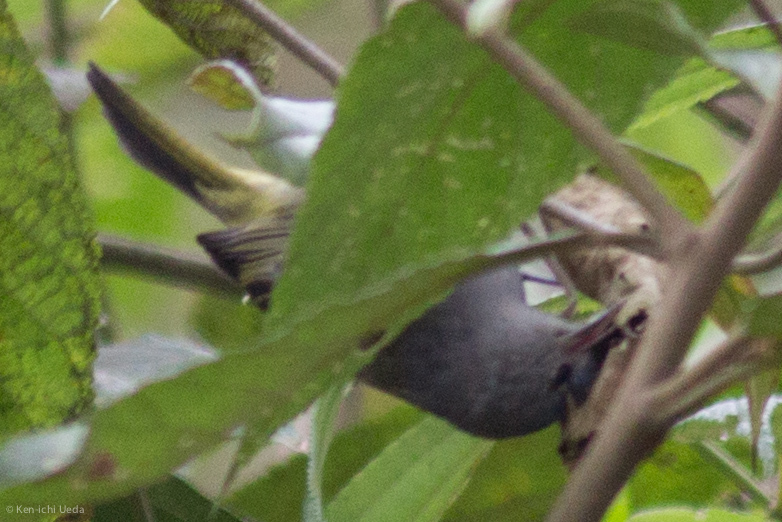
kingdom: Animalia
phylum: Chordata
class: Aves
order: Passeriformes
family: Parulidae
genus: Setophaga
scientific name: Setophaga ruticilla
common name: American redstart
